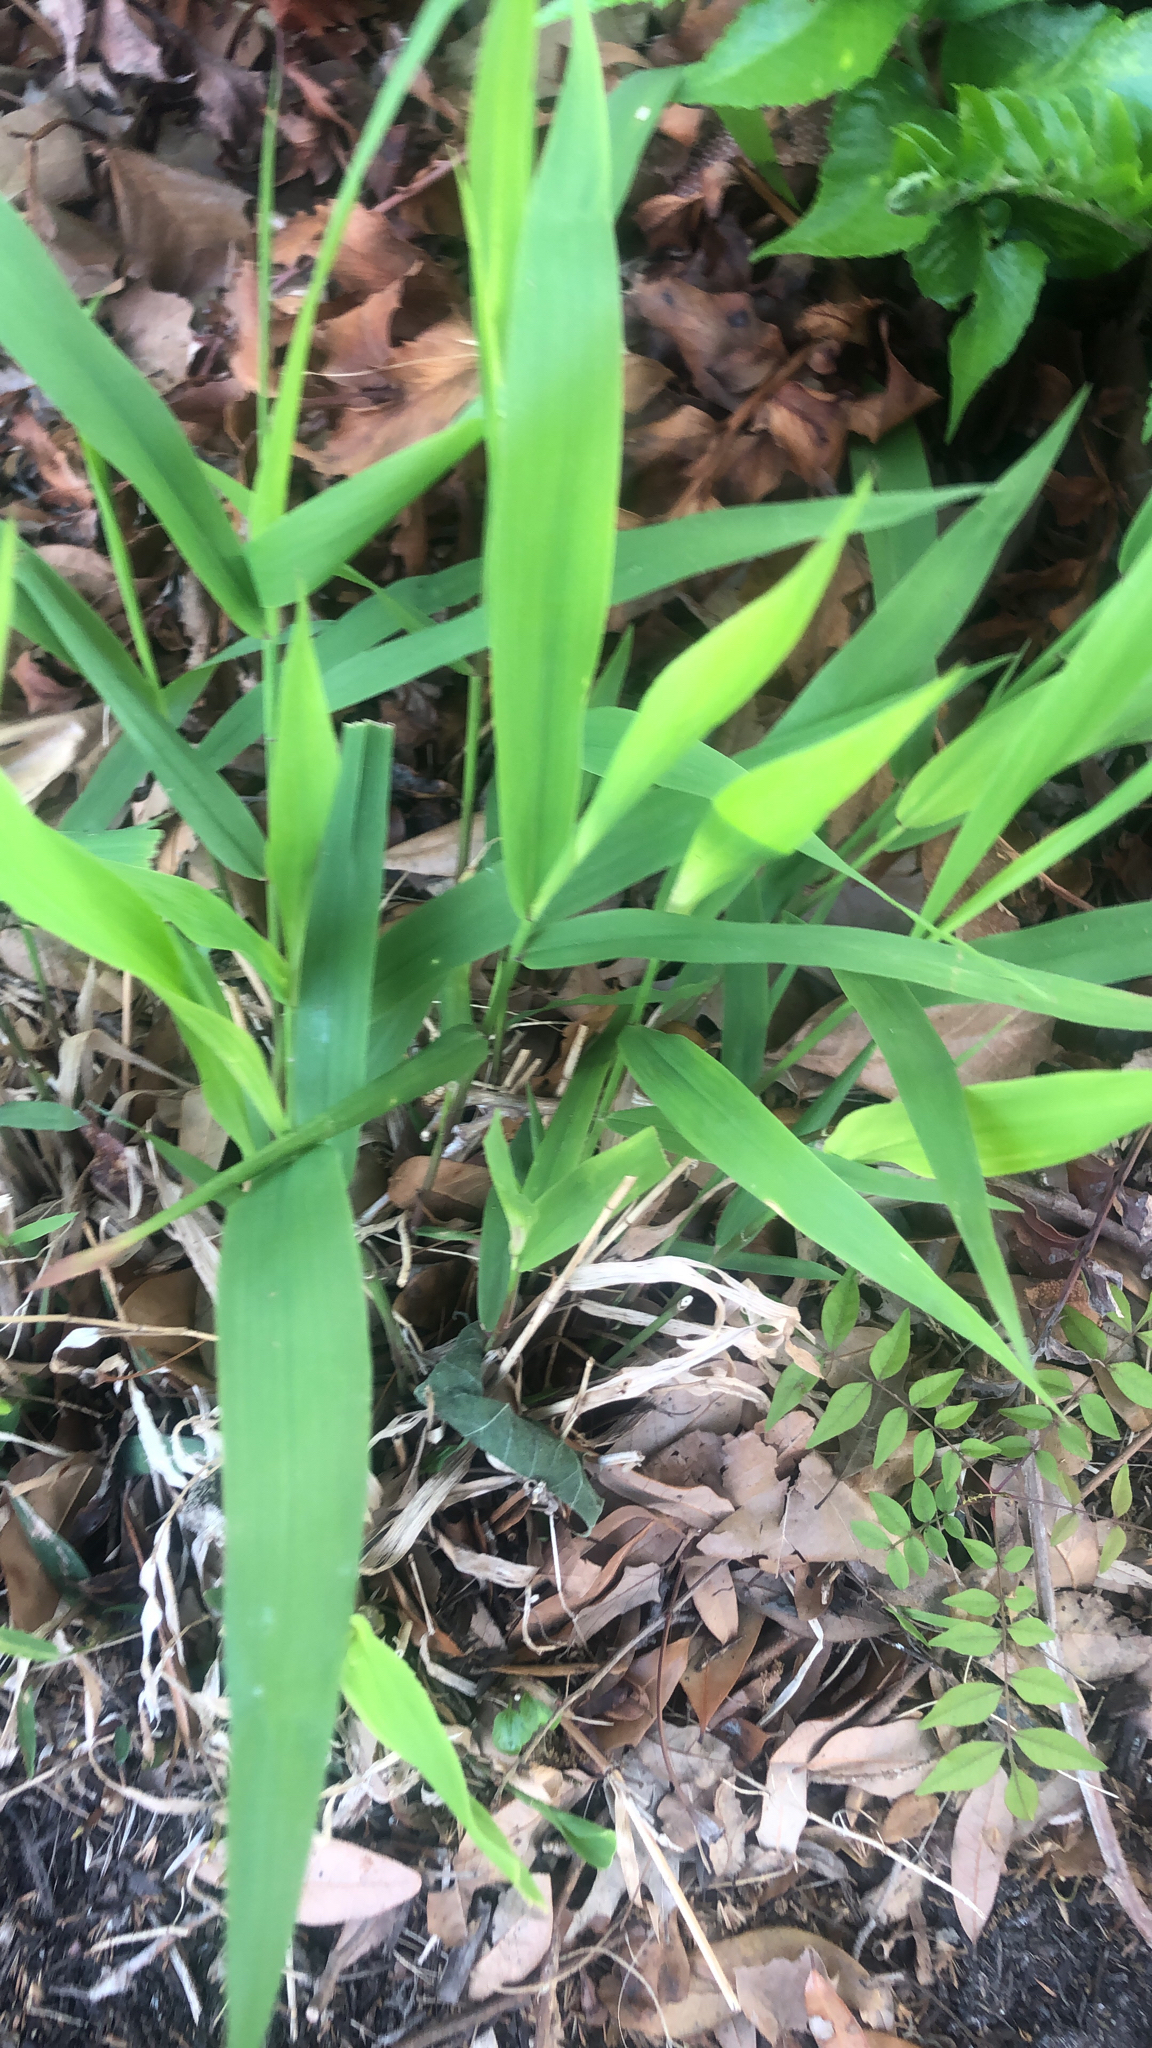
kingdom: Plantae
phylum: Tracheophyta
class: Liliopsida
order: Poales
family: Poaceae
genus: Chasmanthium
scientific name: Chasmanthium latifolium
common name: Broad-leaved chasmanthium
